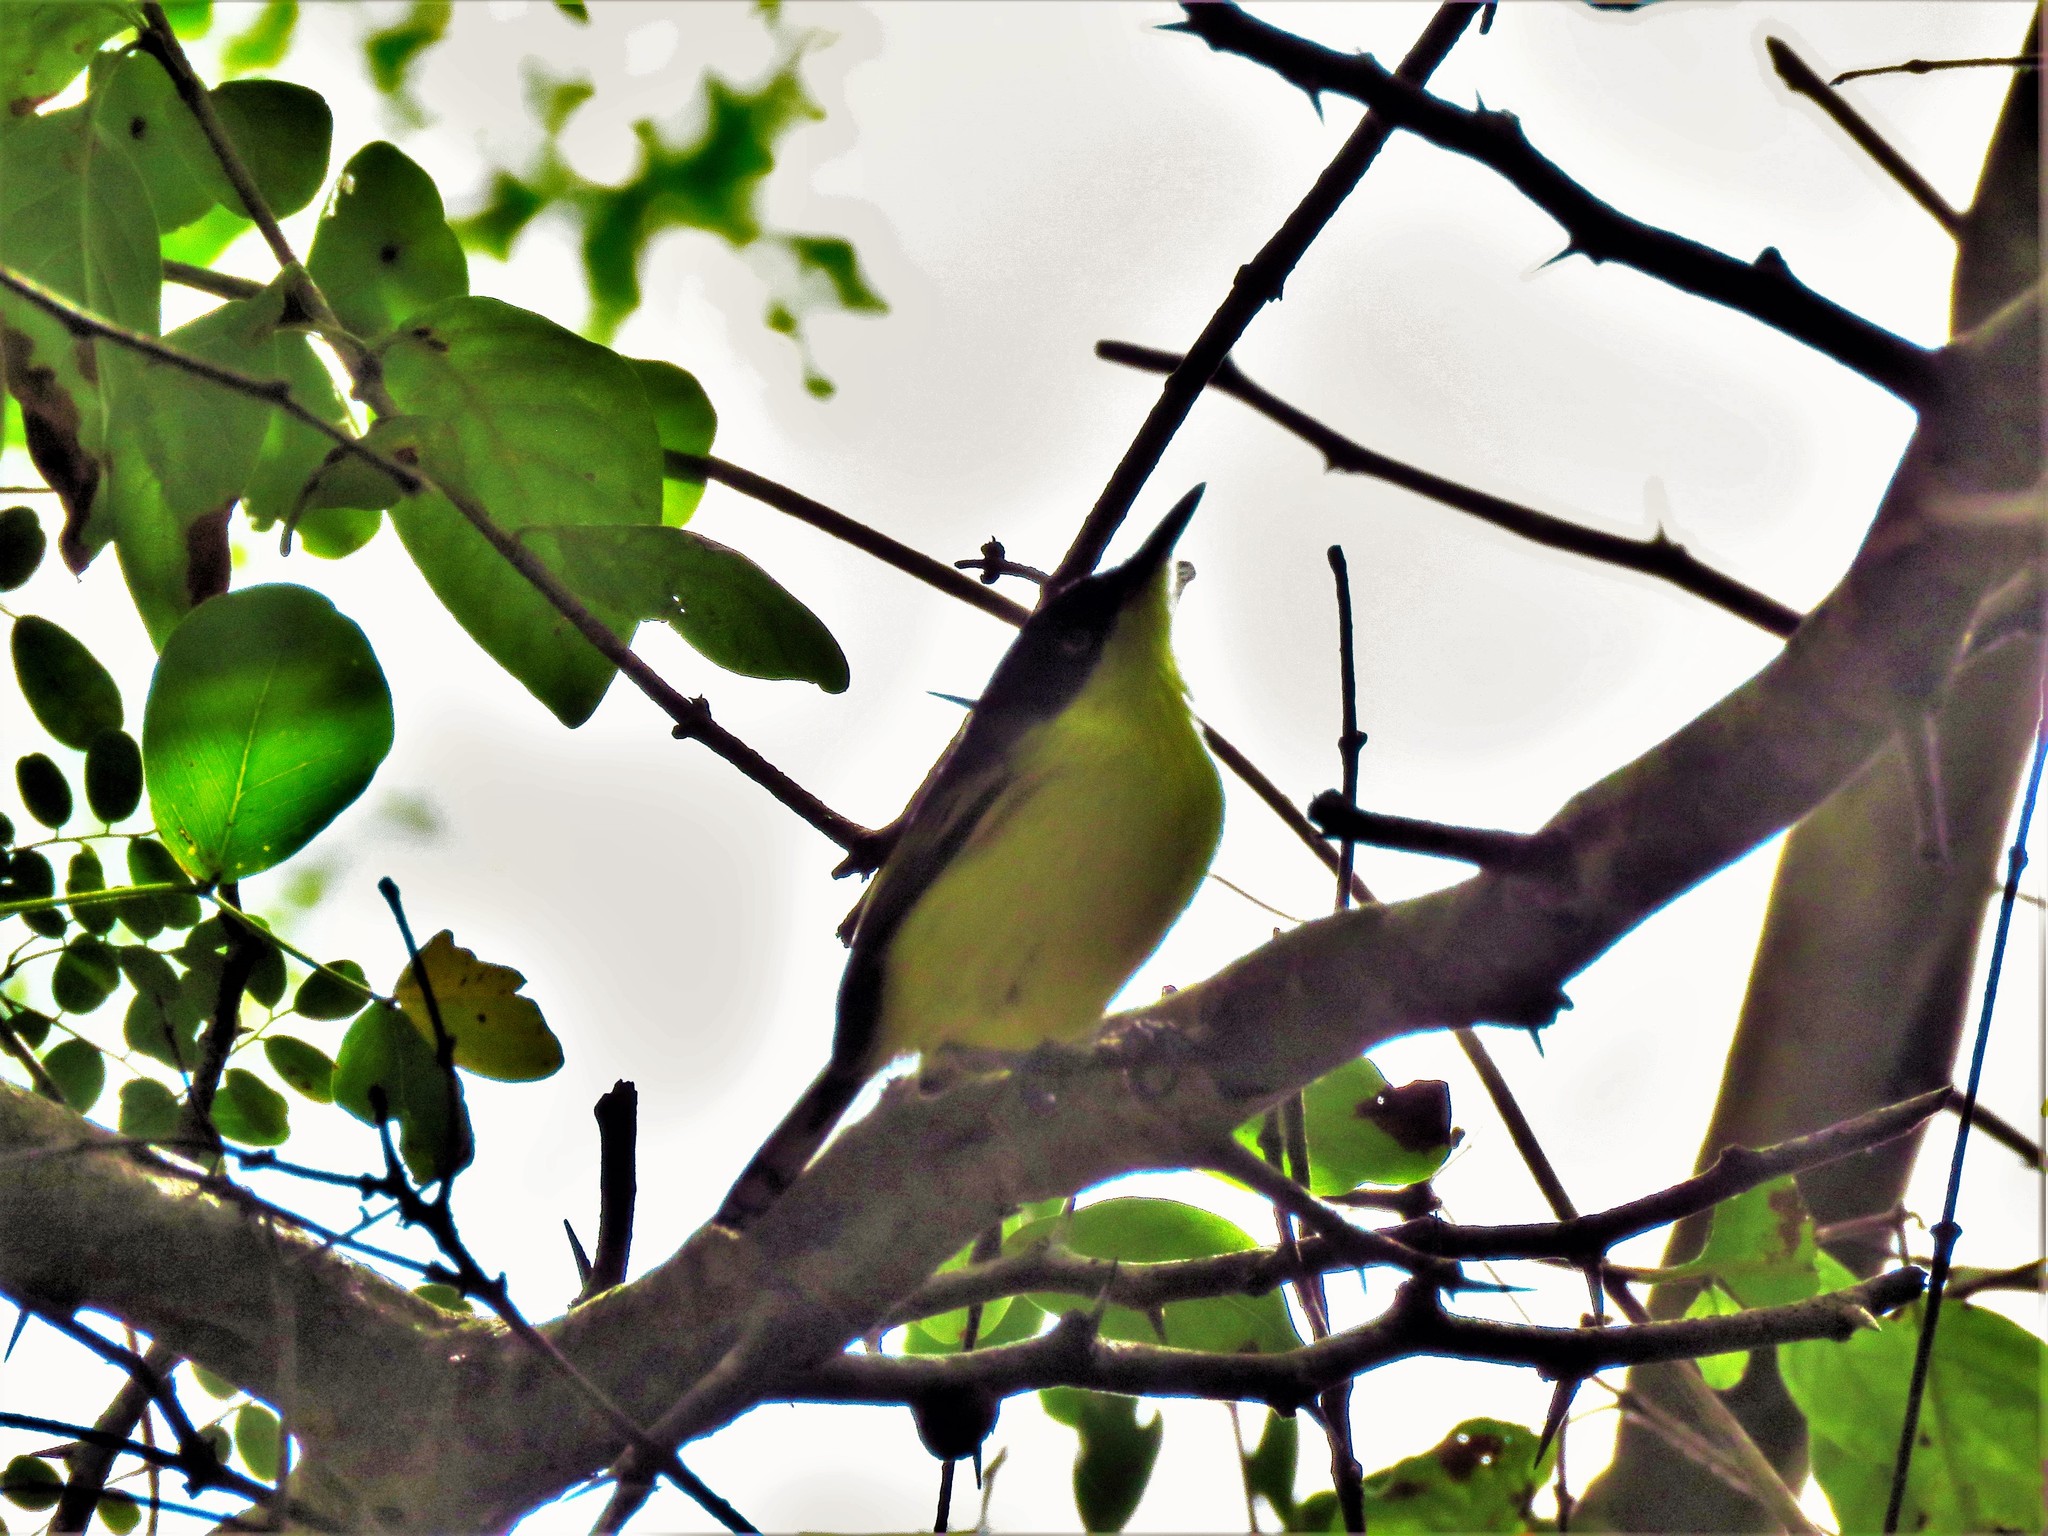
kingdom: Animalia
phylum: Chordata
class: Aves
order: Passeriformes
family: Tyrannidae
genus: Todirostrum
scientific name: Todirostrum cinereum
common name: Common tody-flycatcher
